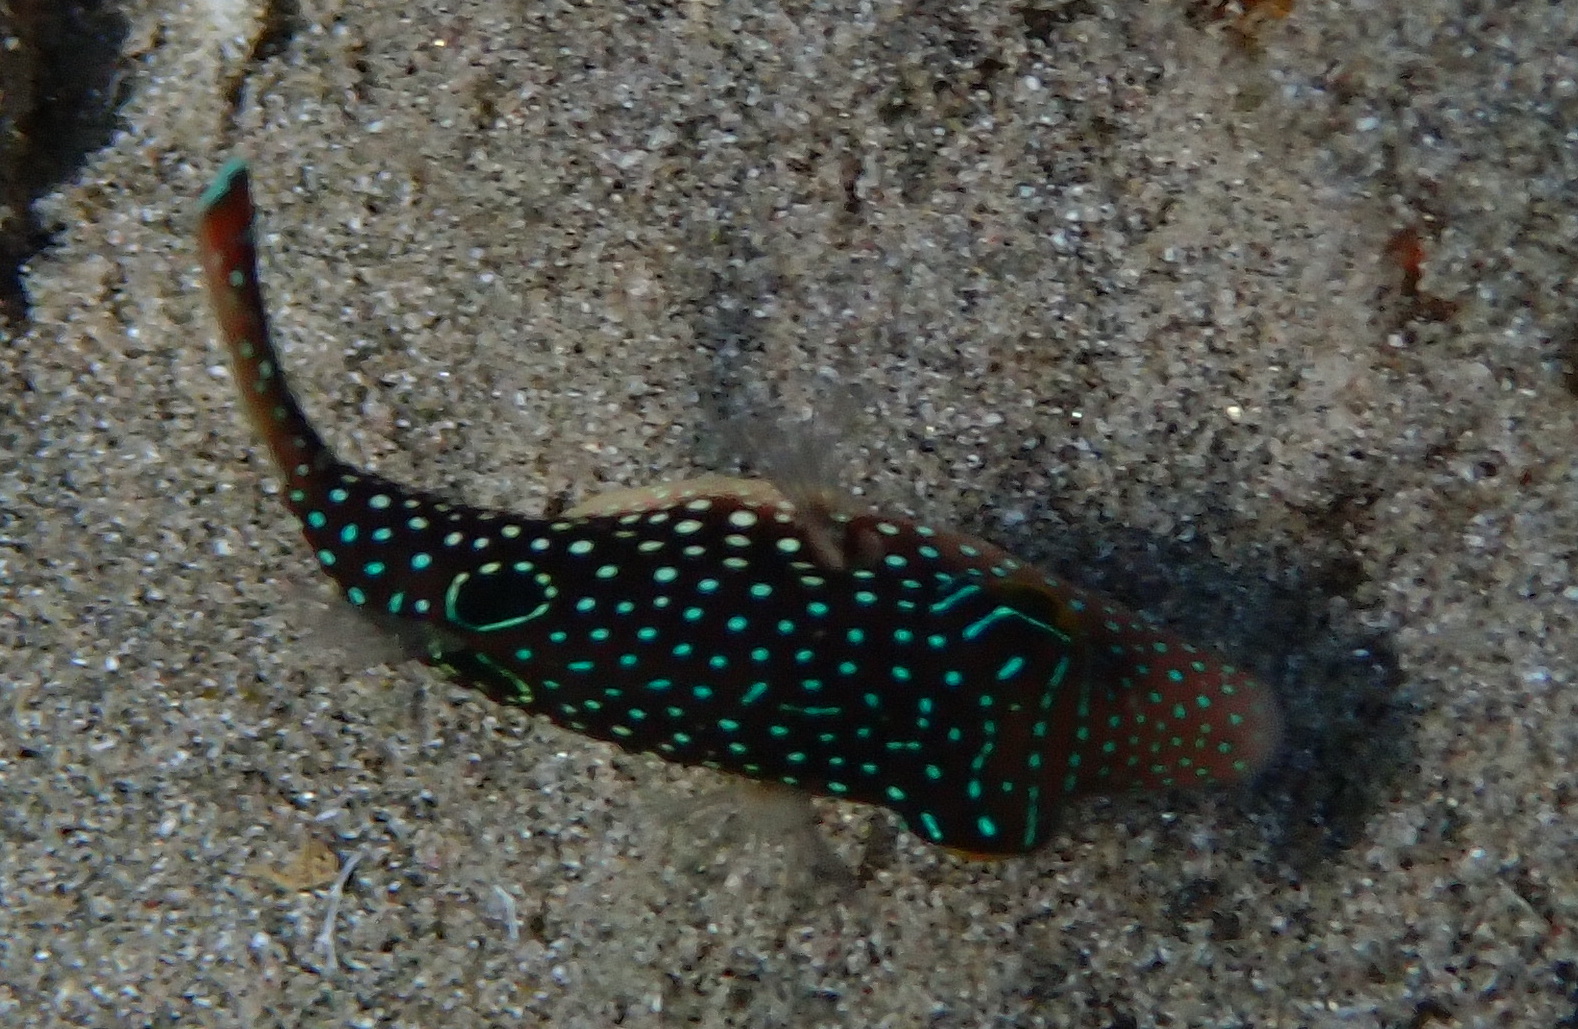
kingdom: Animalia
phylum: Chordata
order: Tetraodontiformes
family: Tetraodontidae
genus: Canthigaster
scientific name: Canthigaster margaritata
